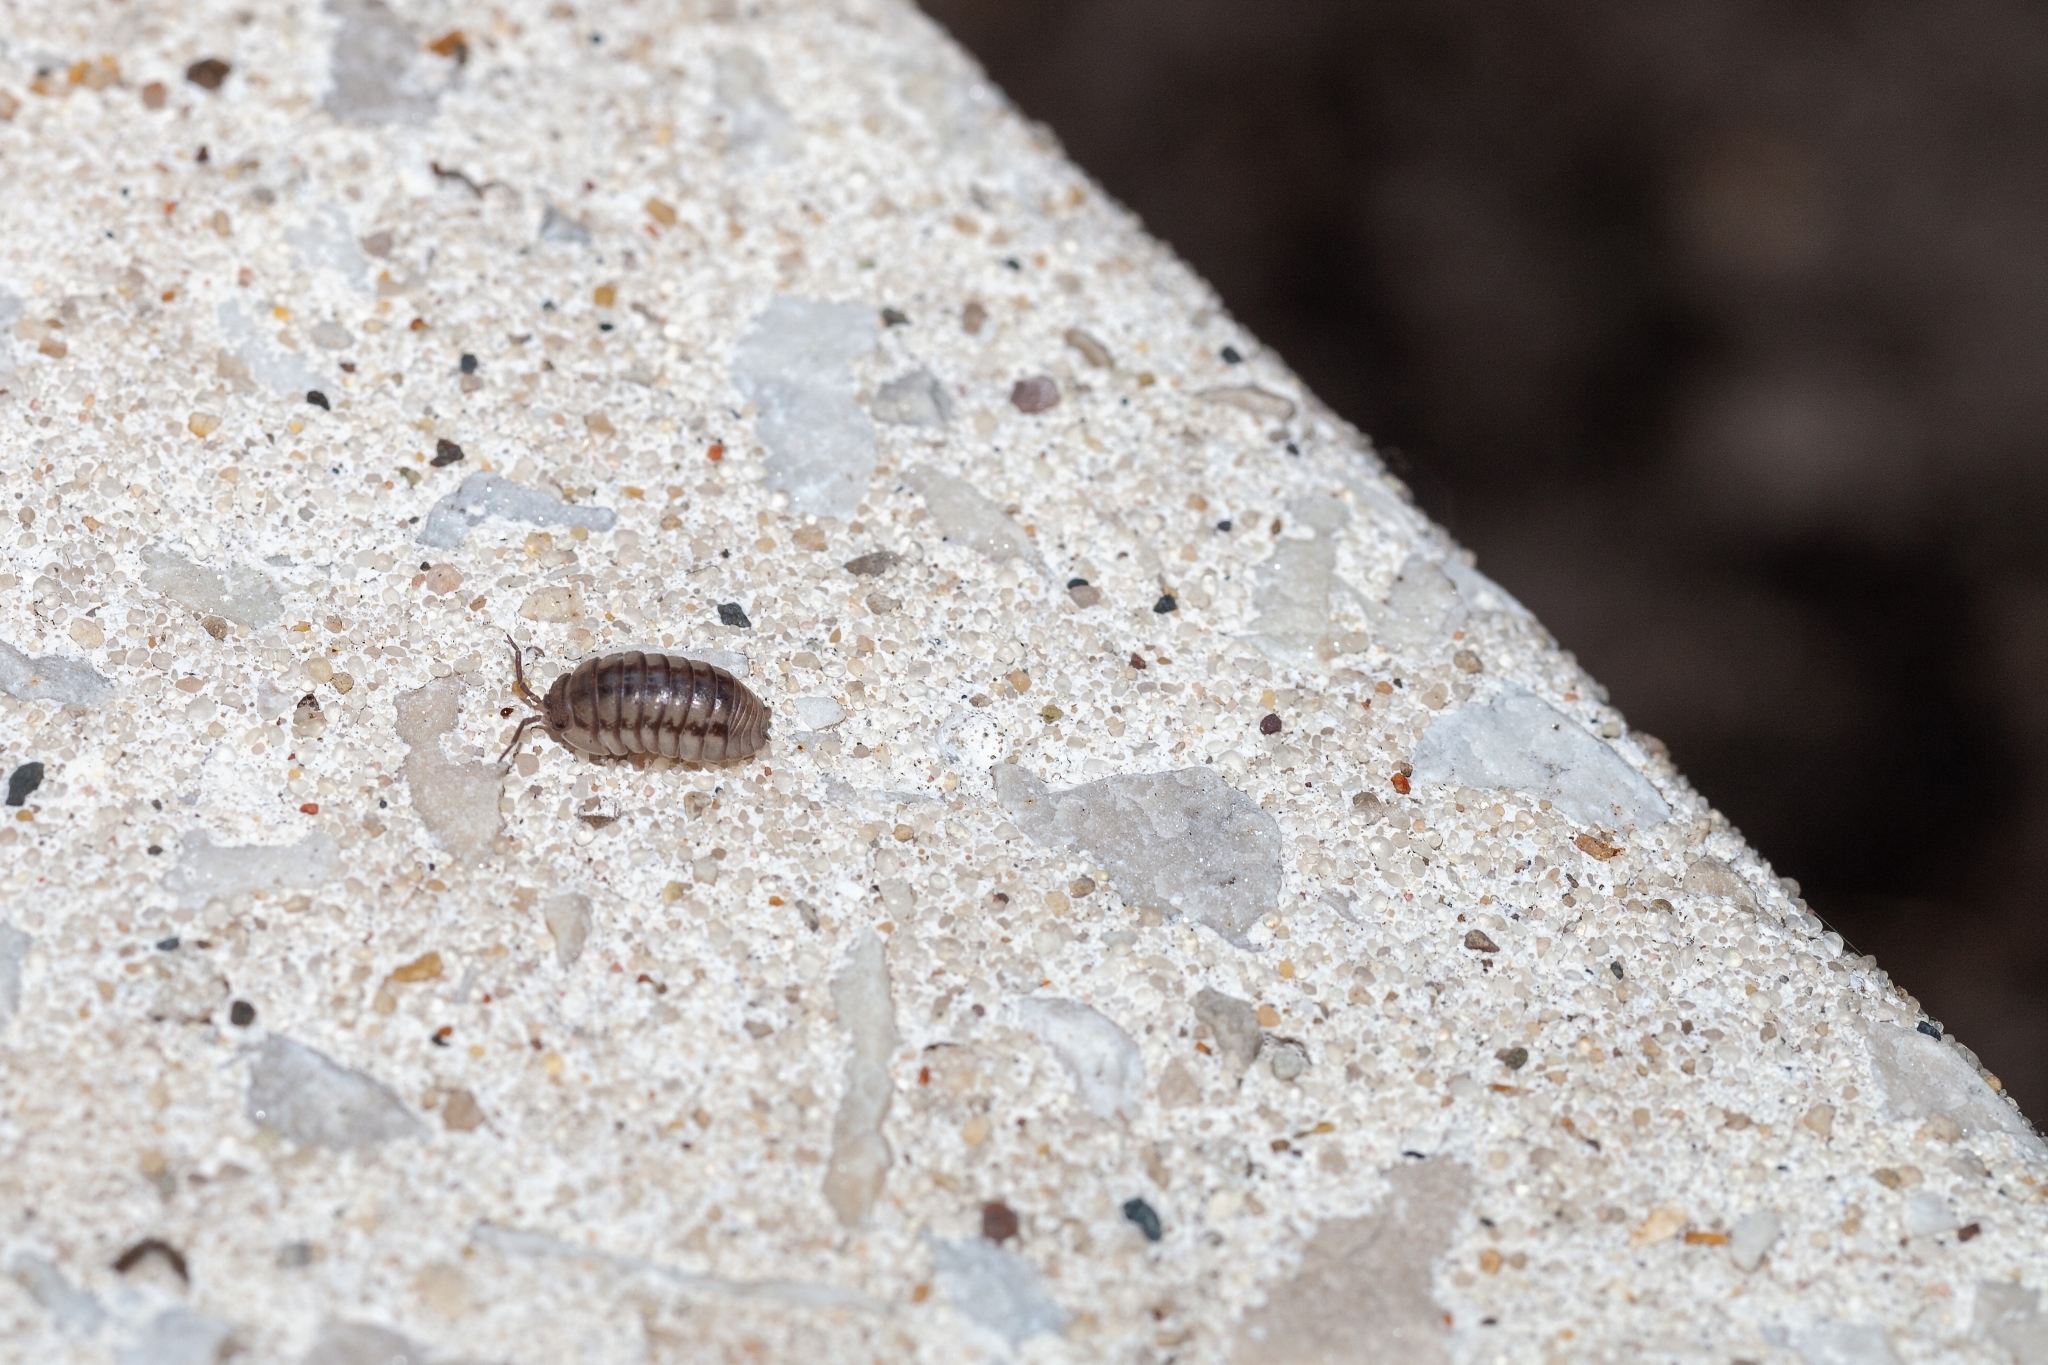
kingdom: Animalia
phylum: Arthropoda
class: Malacostraca
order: Isopoda
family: Armadillidiidae
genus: Armadillidium
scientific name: Armadillidium nasatum
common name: Isopod
